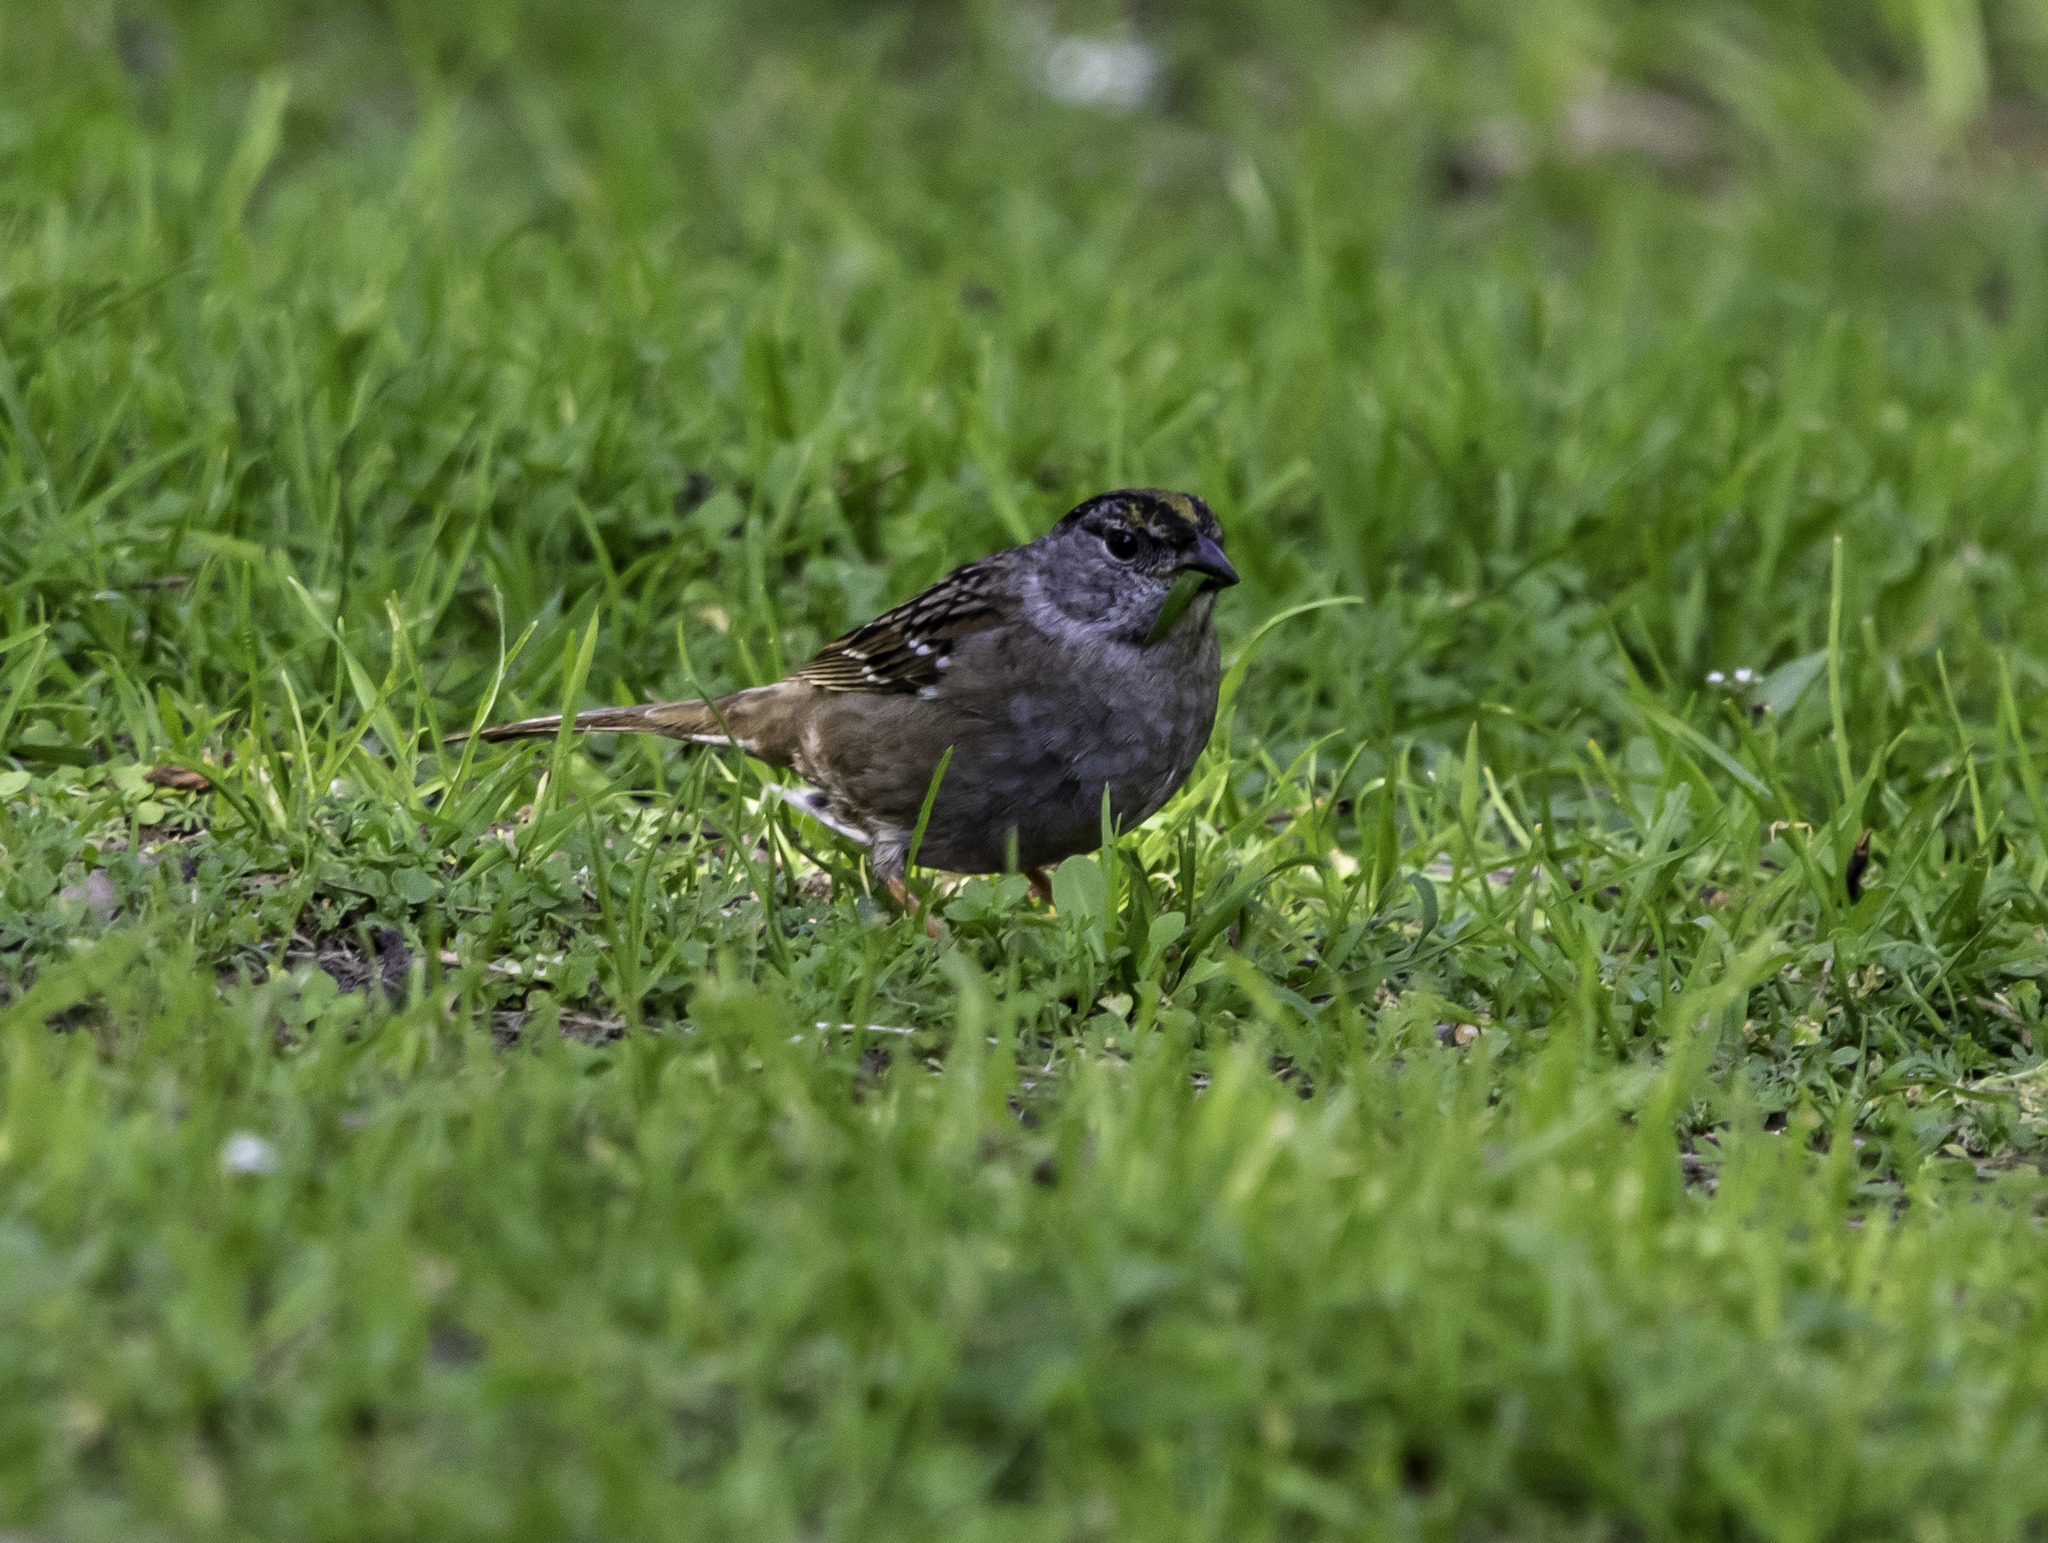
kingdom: Animalia
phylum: Chordata
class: Aves
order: Passeriformes
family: Passerellidae
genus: Zonotrichia
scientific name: Zonotrichia atricapilla
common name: Golden-crowned sparrow
